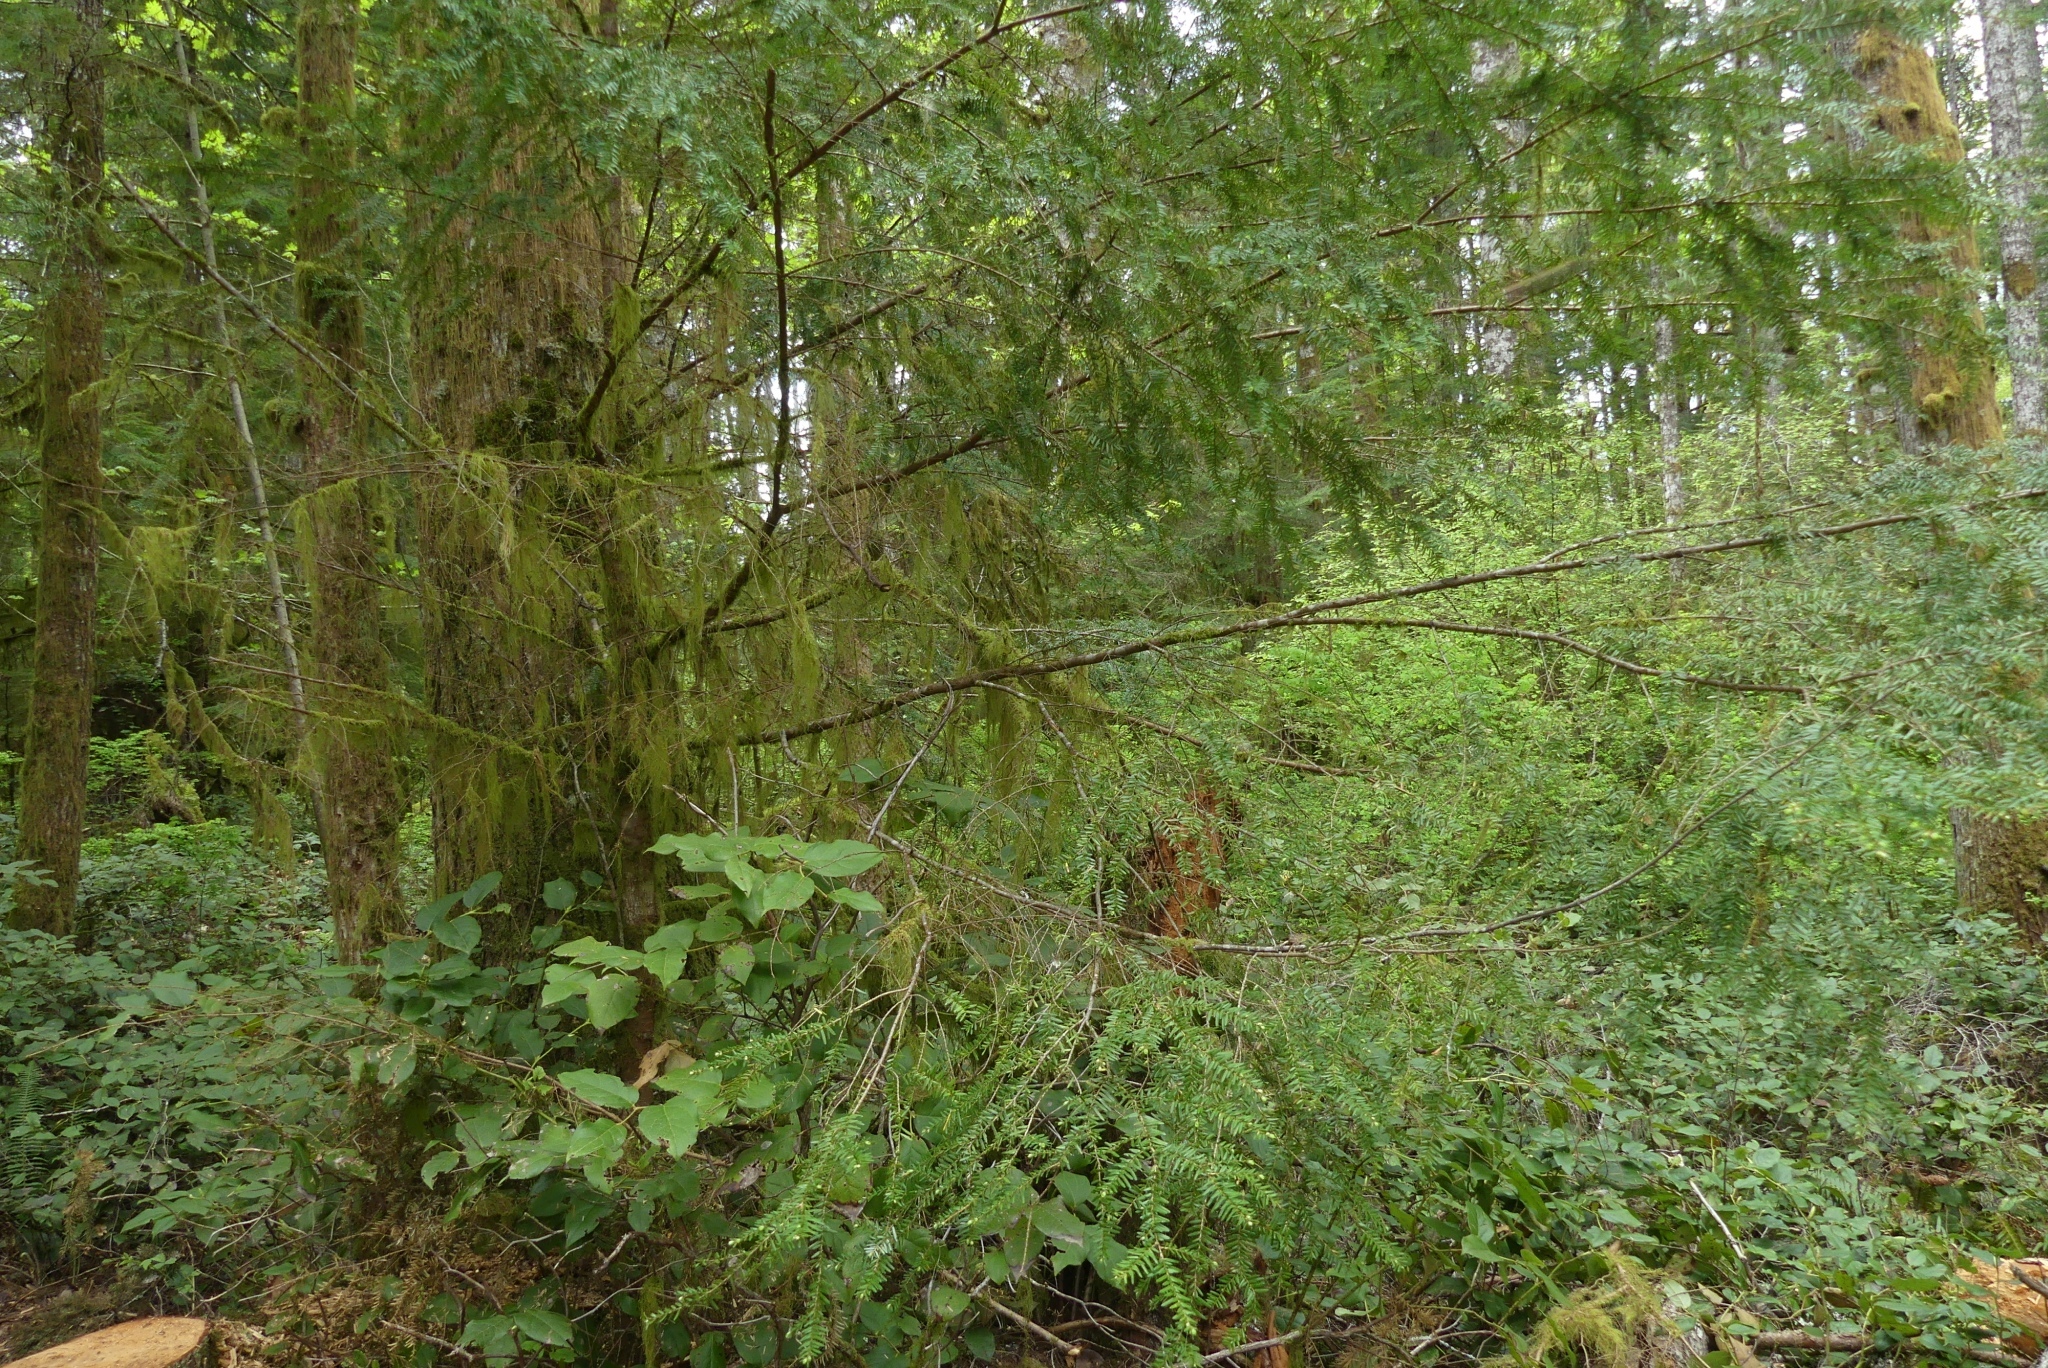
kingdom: Plantae
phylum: Tracheophyta
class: Pinopsida
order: Pinales
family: Pinaceae
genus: Tsuga
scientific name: Tsuga heterophylla
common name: Western hemlock
